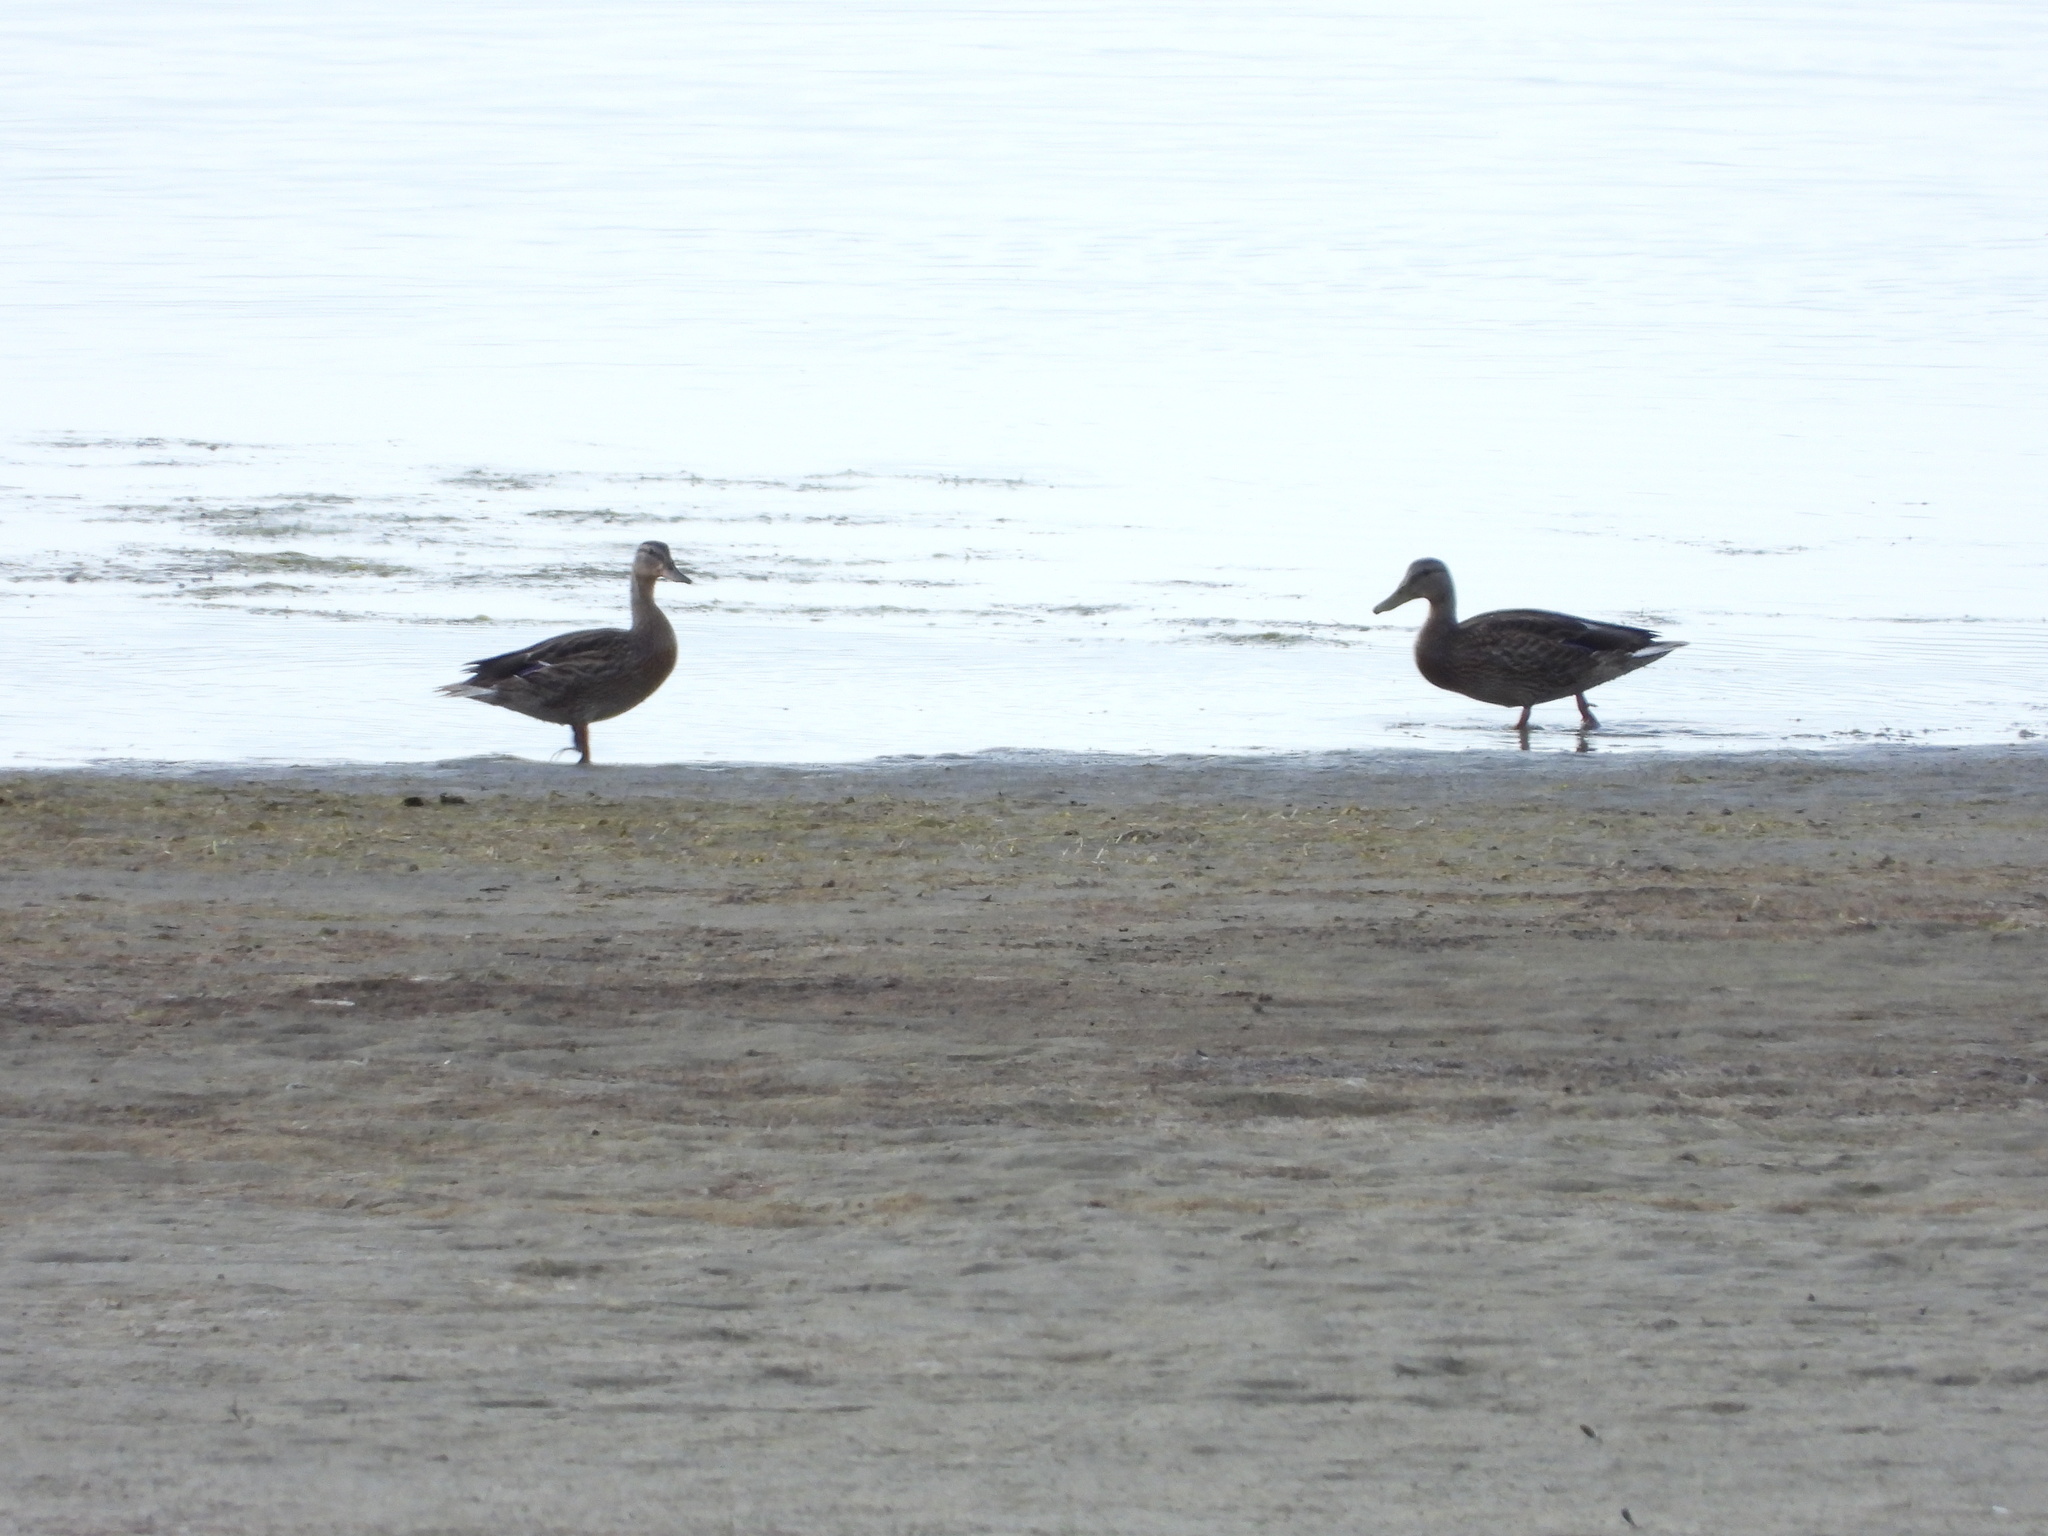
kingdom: Animalia
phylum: Chordata
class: Aves
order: Anseriformes
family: Anatidae
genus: Anas
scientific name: Anas platyrhynchos
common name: Mallard
